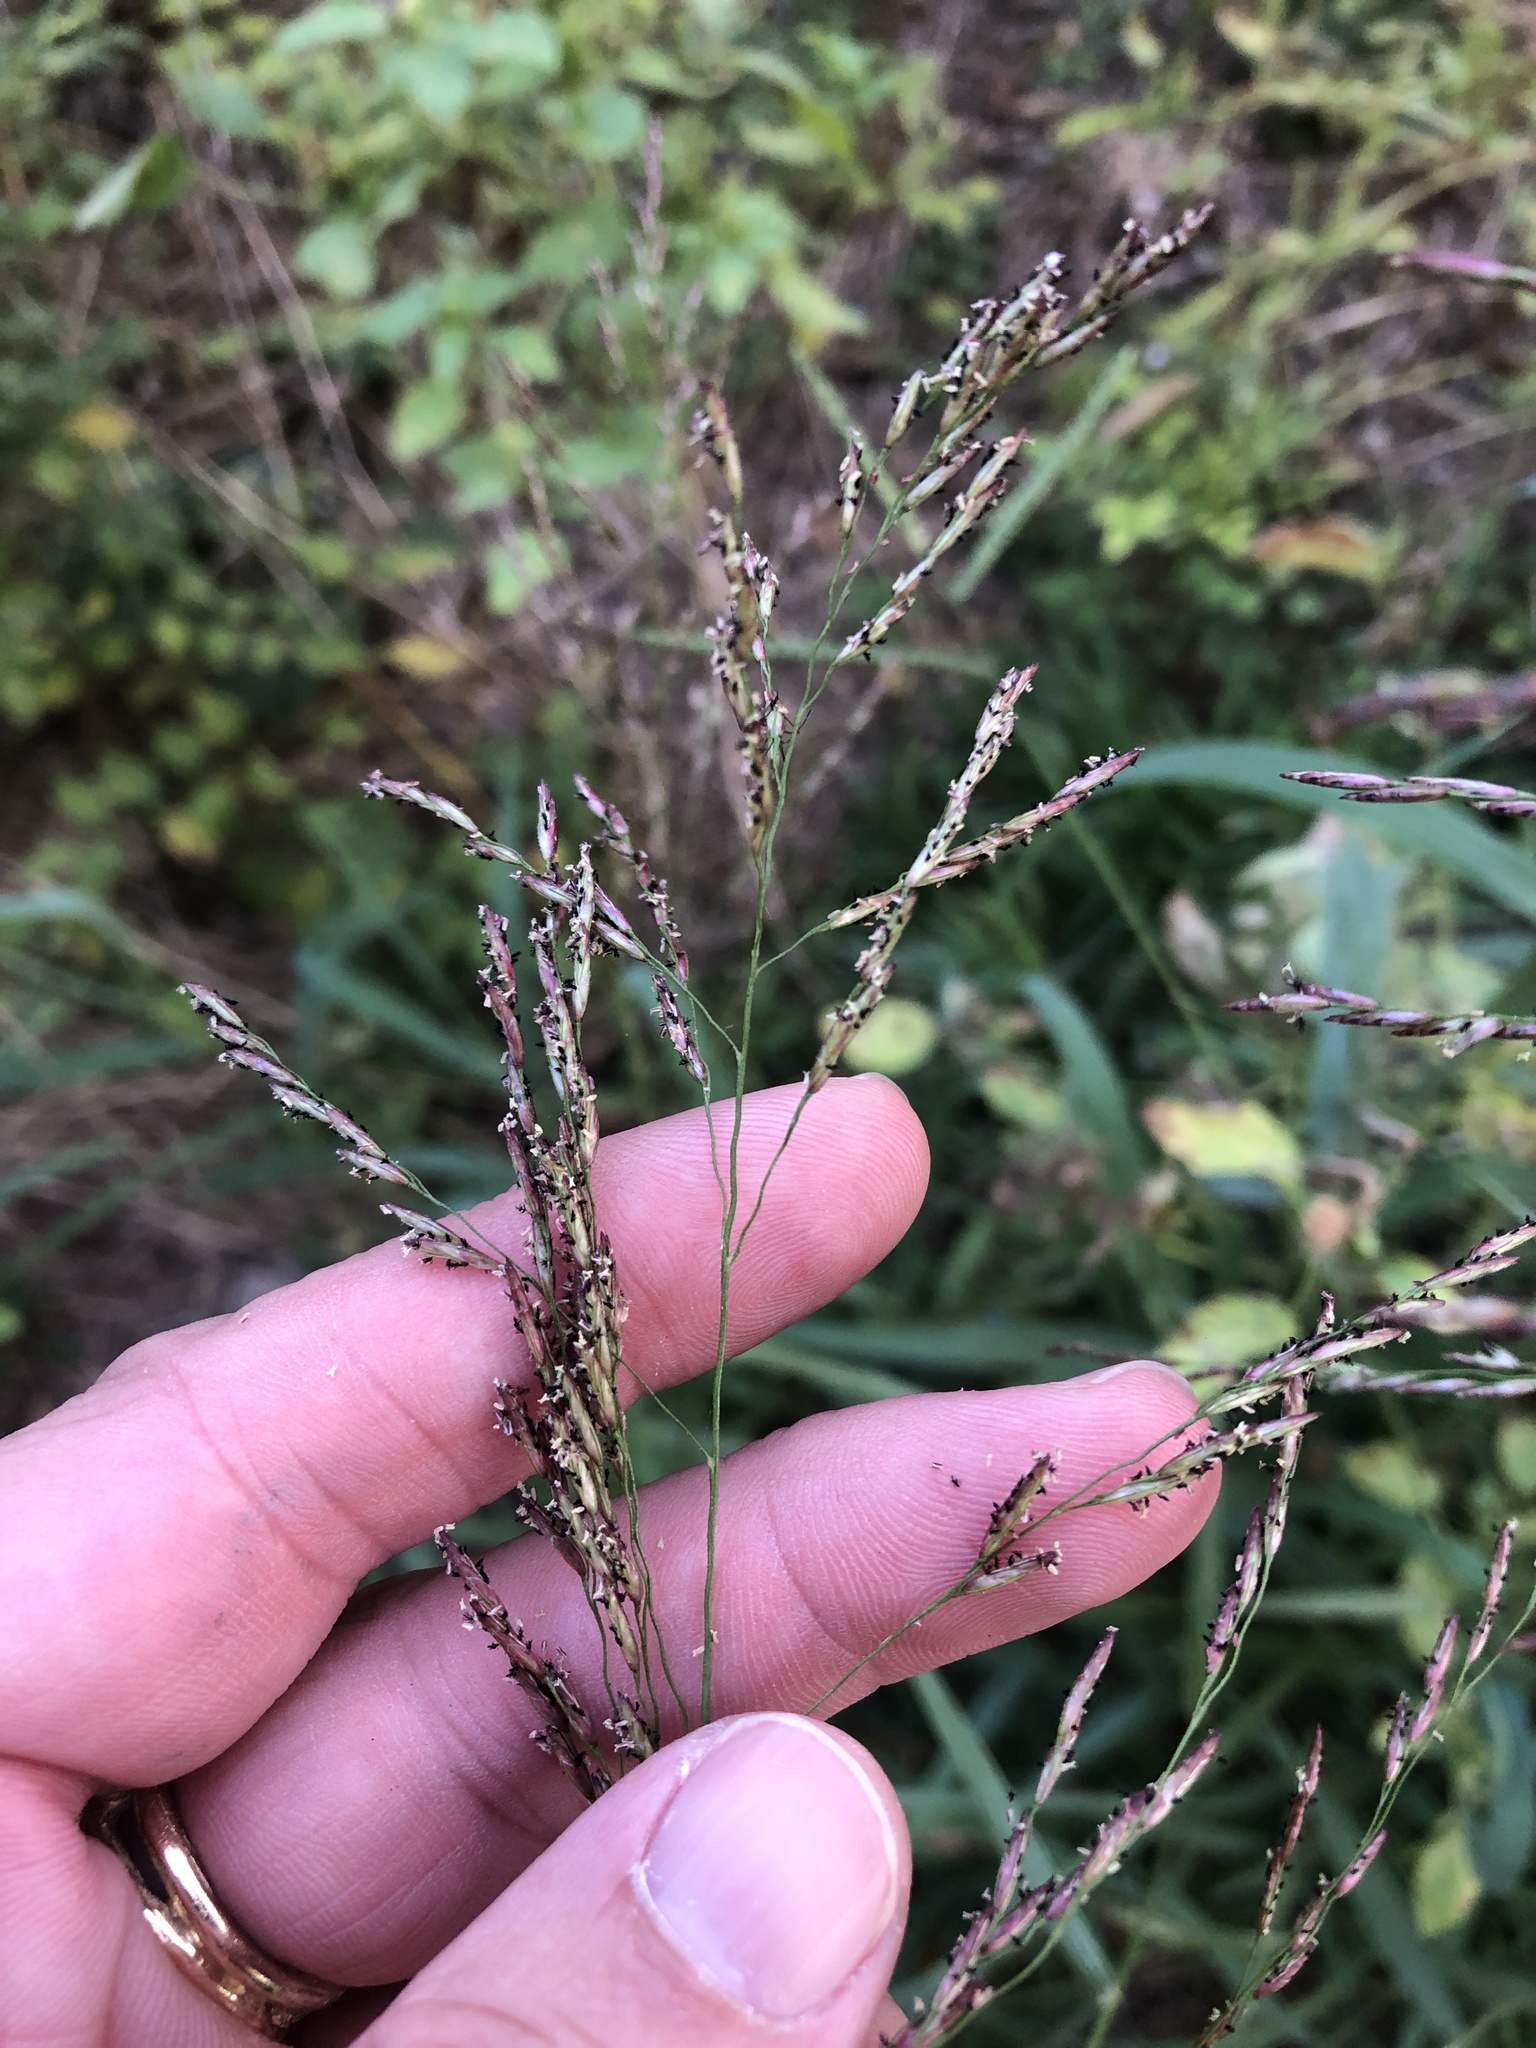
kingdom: Plantae
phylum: Tracheophyta
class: Liliopsida
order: Poales
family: Poaceae
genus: Tridens
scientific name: Tridens flavus
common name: Purpletop
